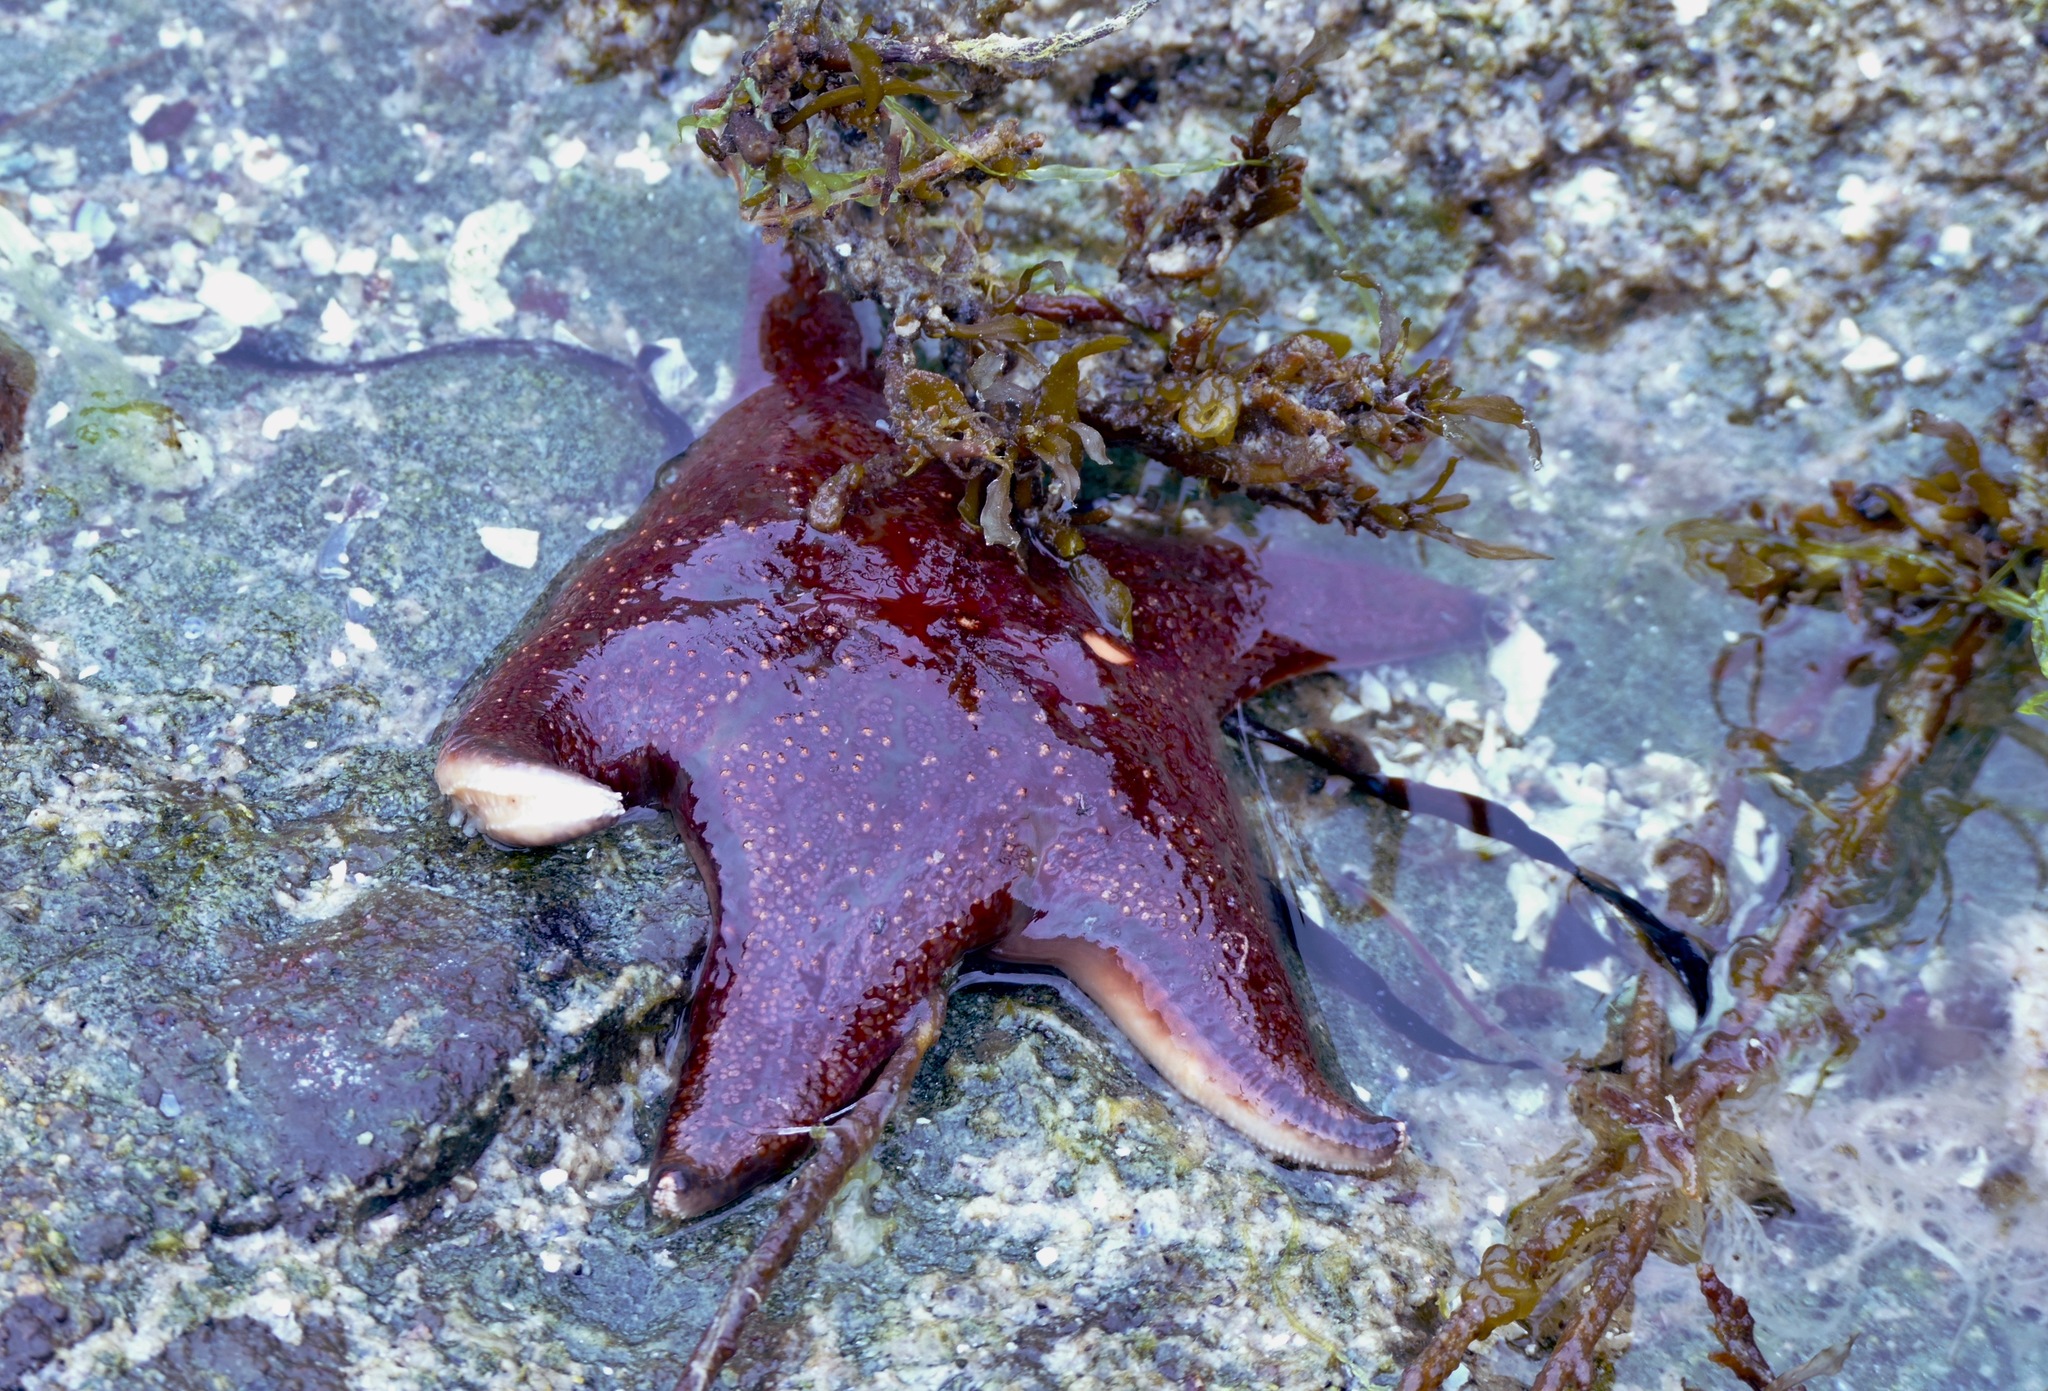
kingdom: Animalia
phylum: Echinodermata
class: Asteroidea
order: Valvatida
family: Asteropseidae
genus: Dermasterias
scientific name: Dermasterias imbricata
